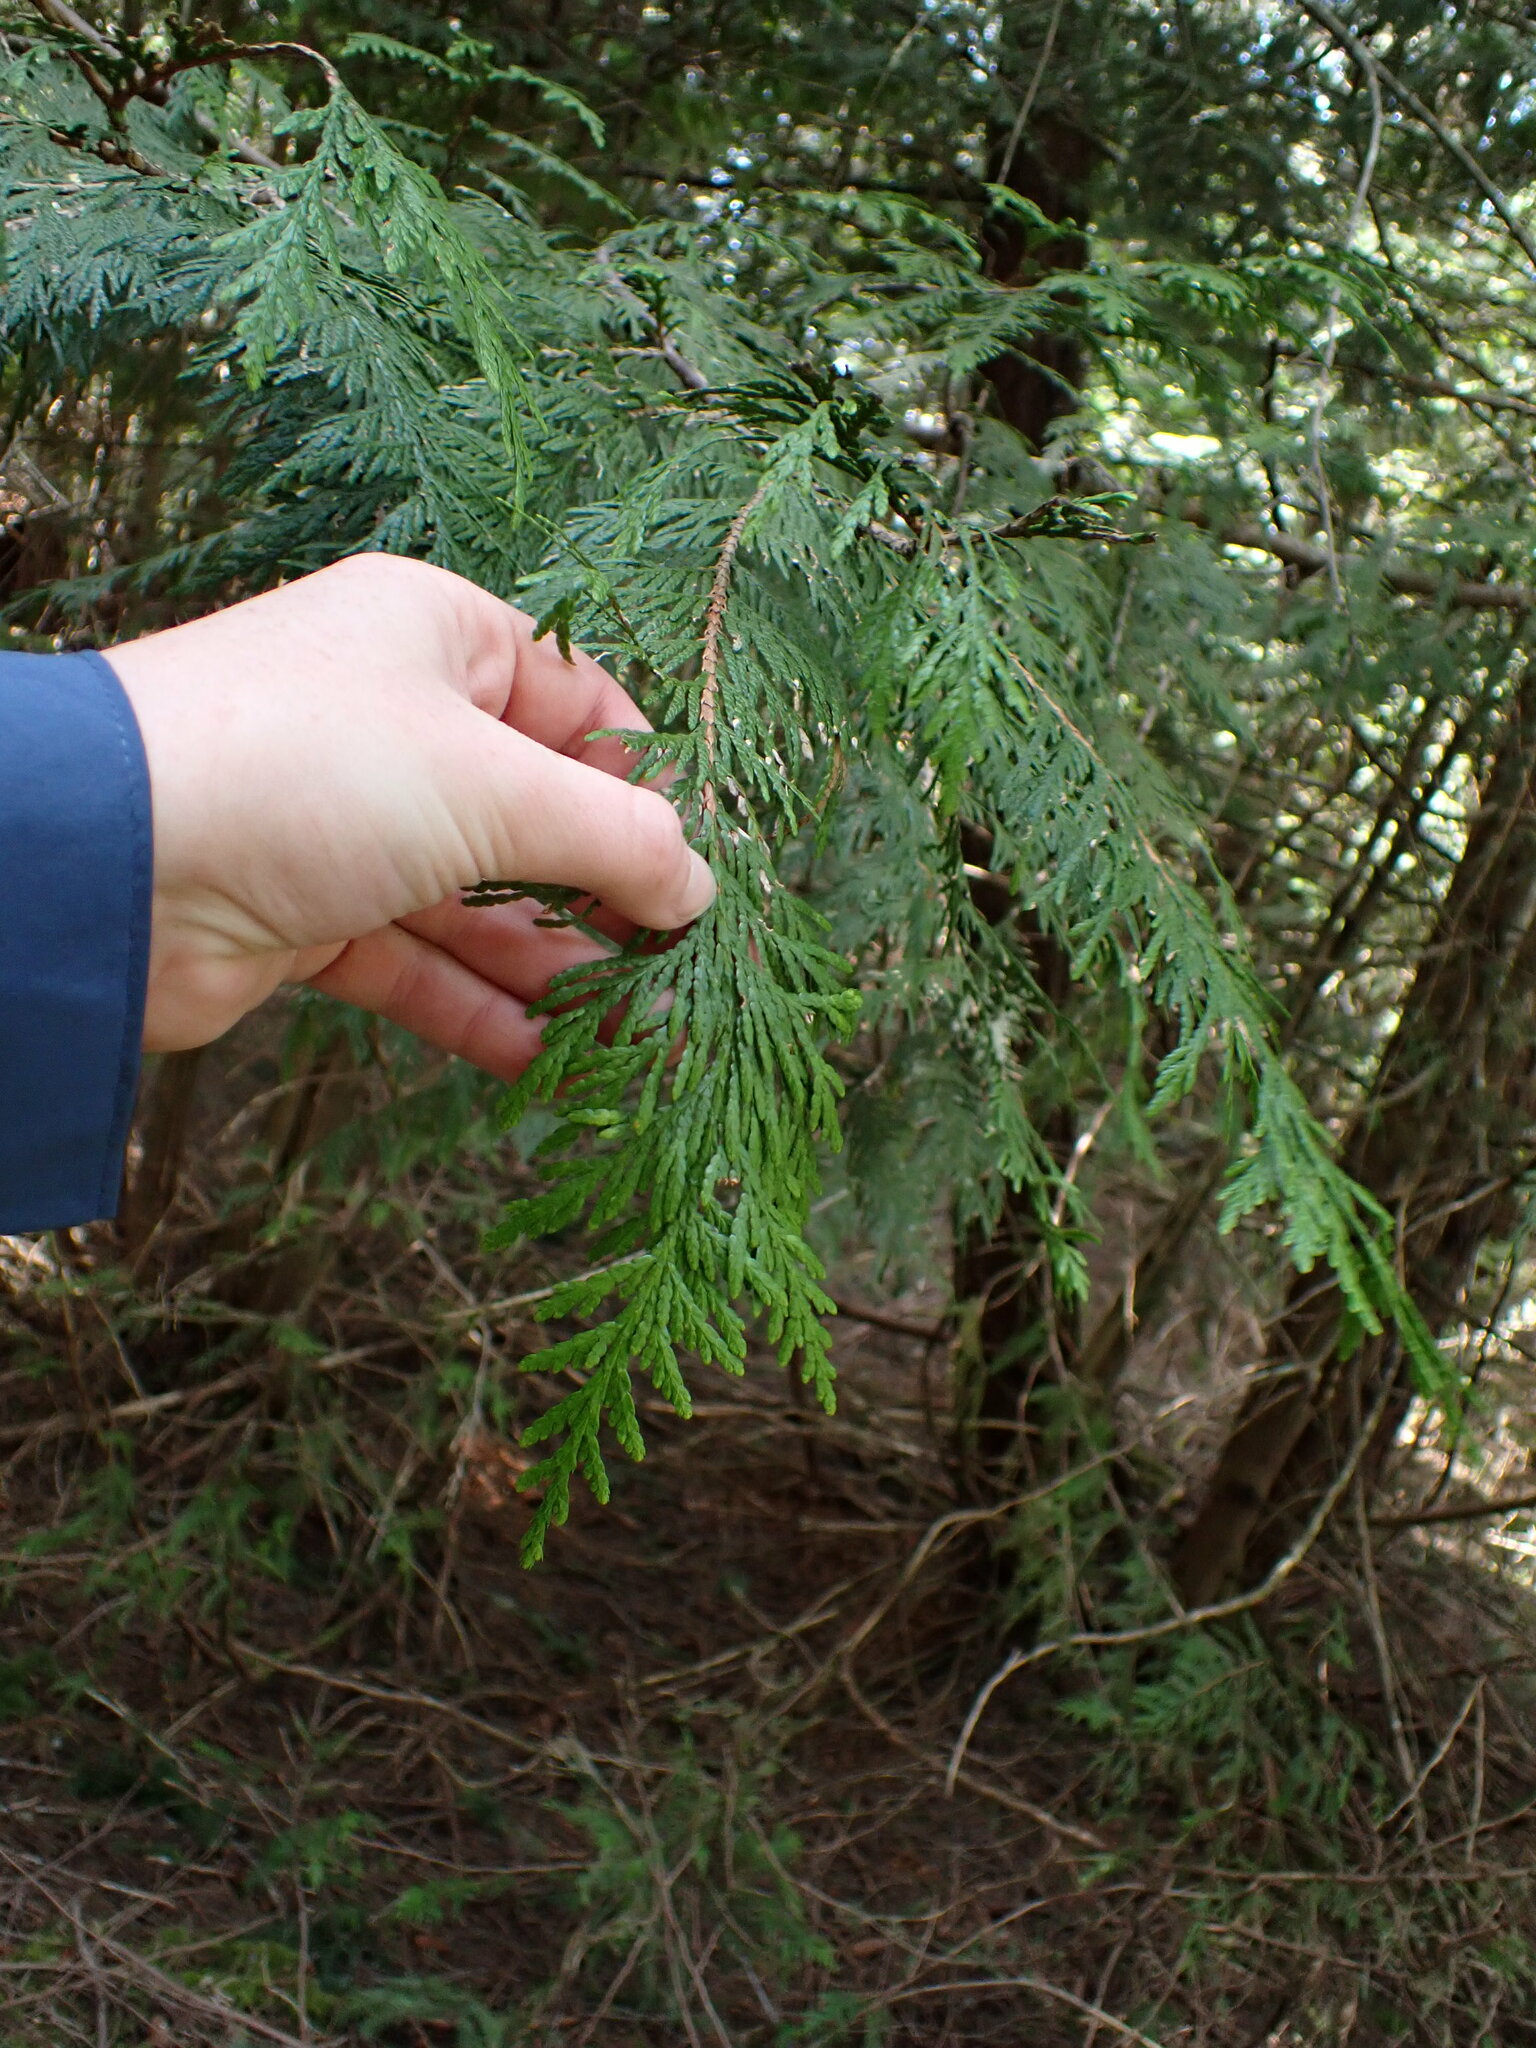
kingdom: Plantae
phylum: Tracheophyta
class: Pinopsida
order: Pinales
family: Cupressaceae
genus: Thuja
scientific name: Thuja plicata
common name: Western red-cedar
